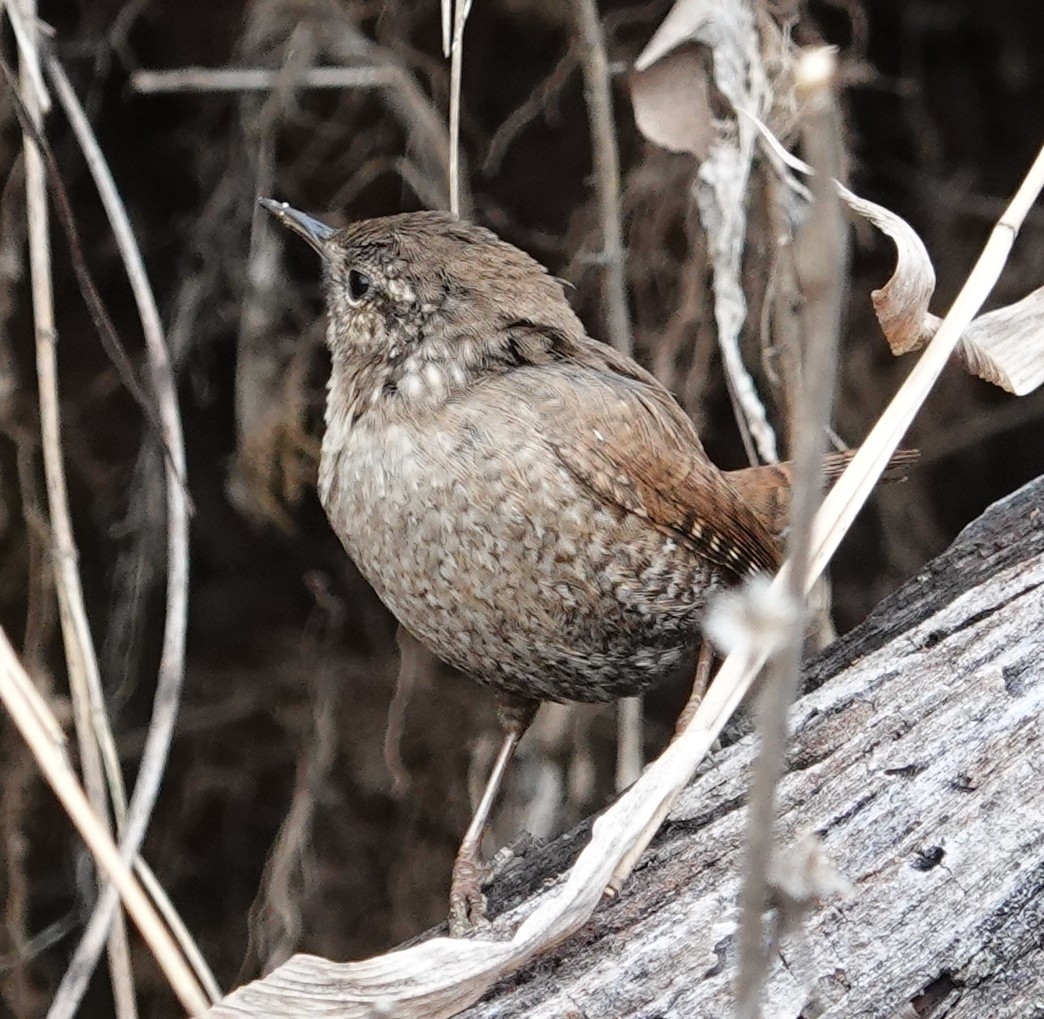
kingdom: Animalia
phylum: Chordata
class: Aves
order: Passeriformes
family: Troglodytidae
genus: Troglodytes
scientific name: Troglodytes hiemalis
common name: Winter wren
